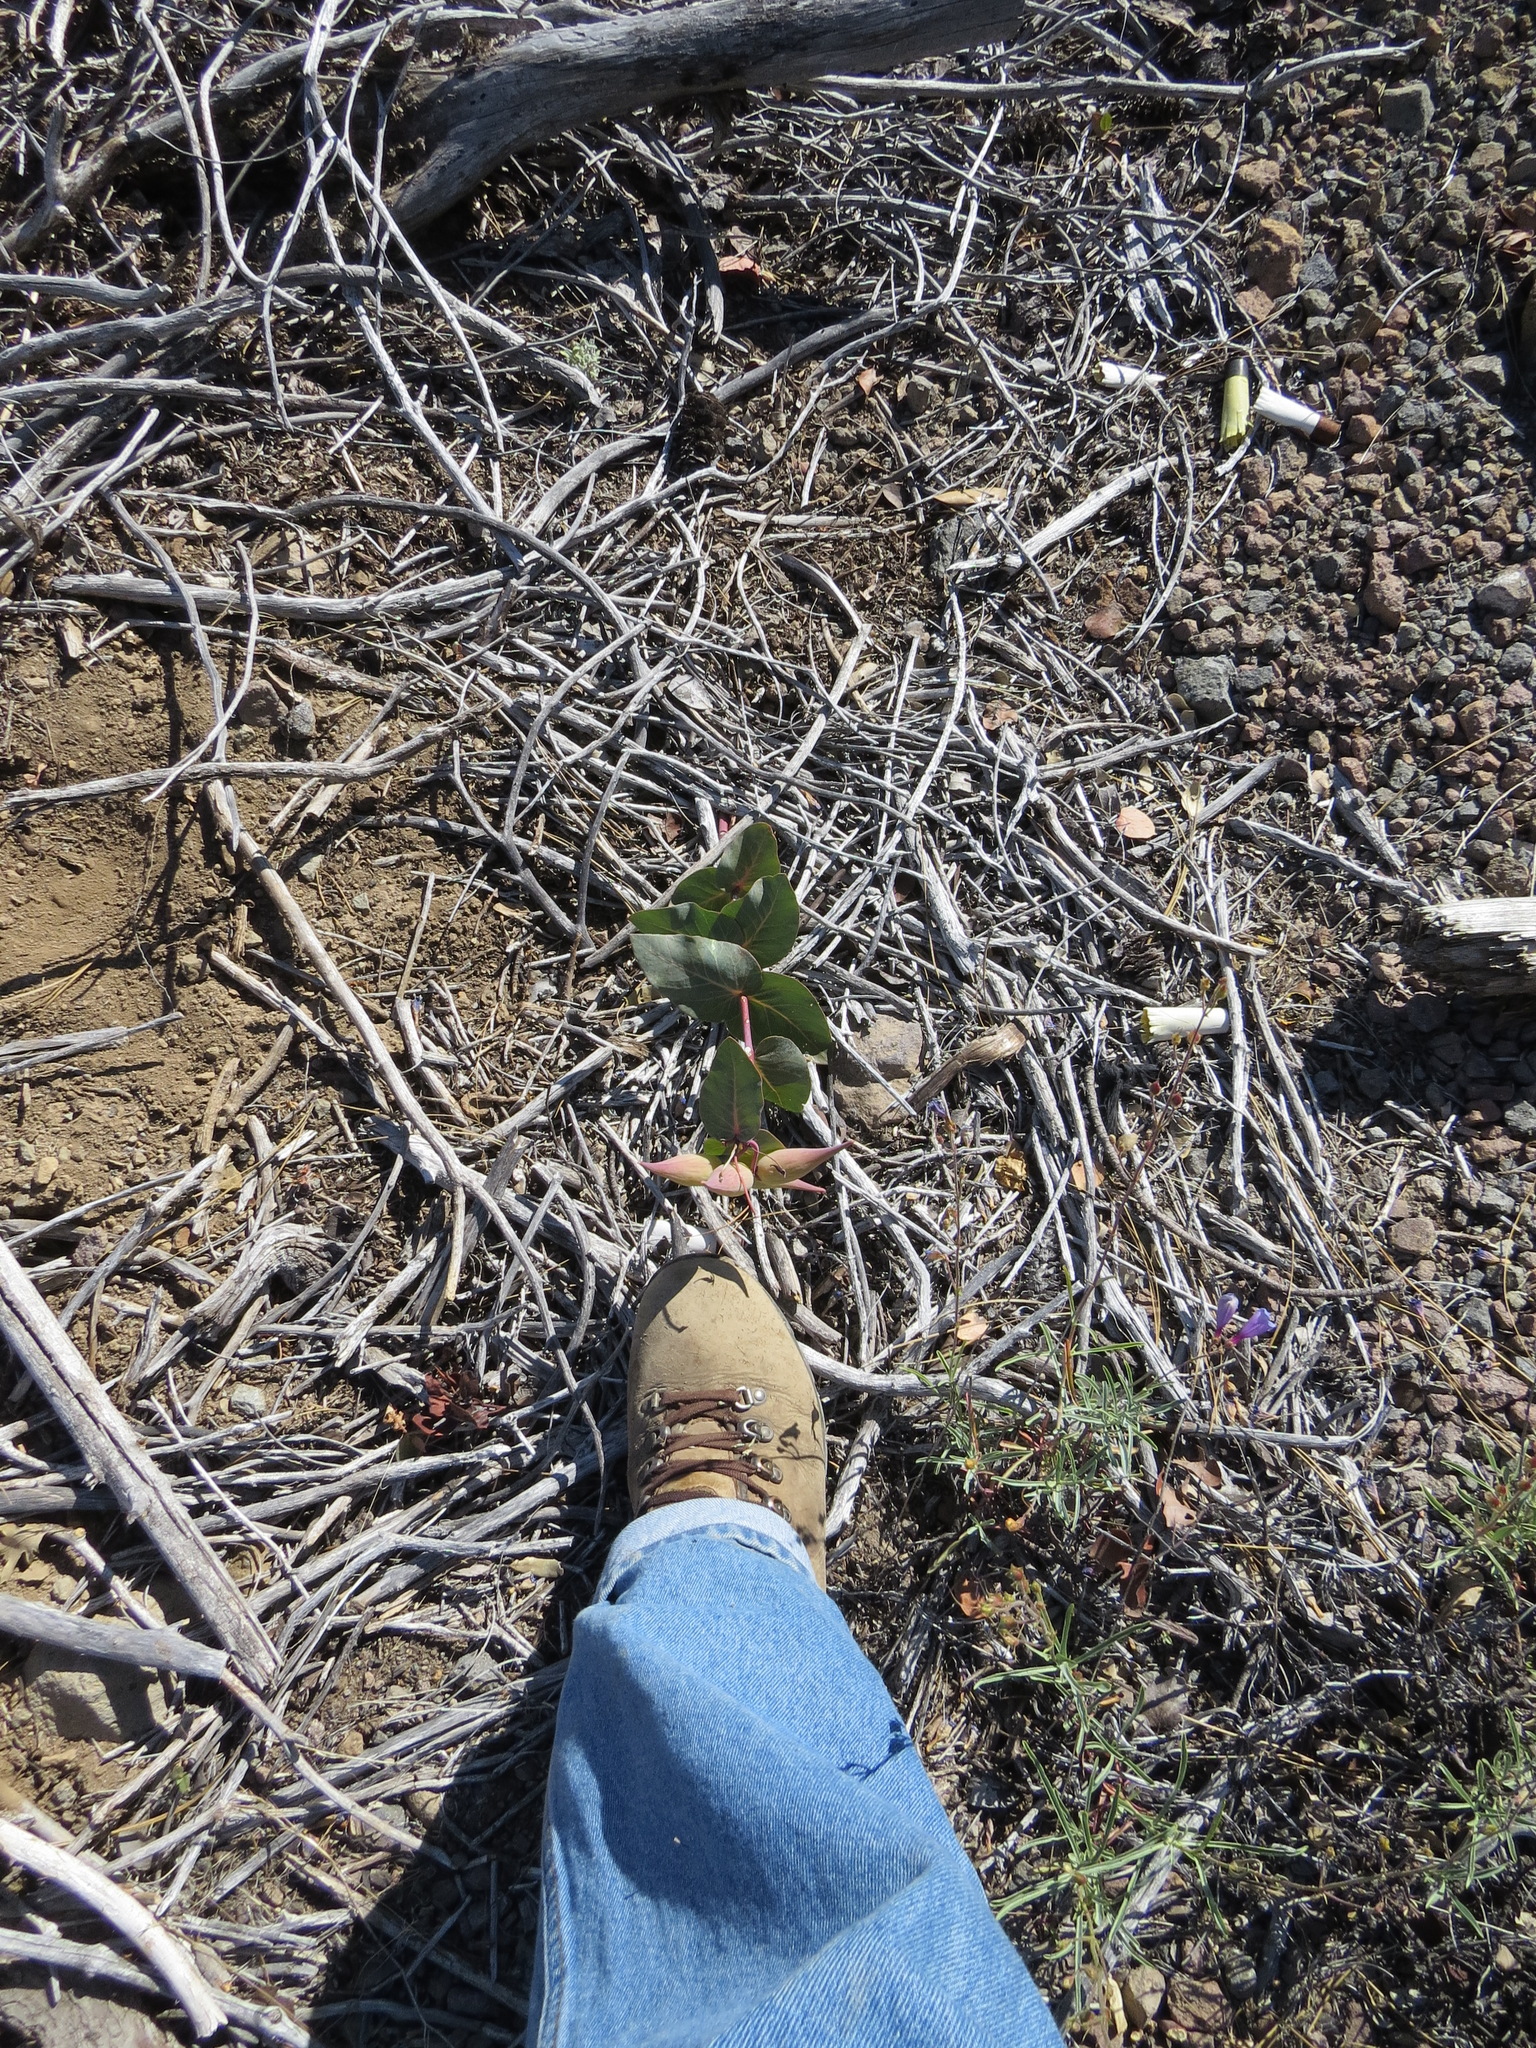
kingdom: Plantae
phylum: Tracheophyta
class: Magnoliopsida
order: Gentianales
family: Apocynaceae
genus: Asclepias
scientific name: Asclepias cordifolia
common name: Purple milkweed
